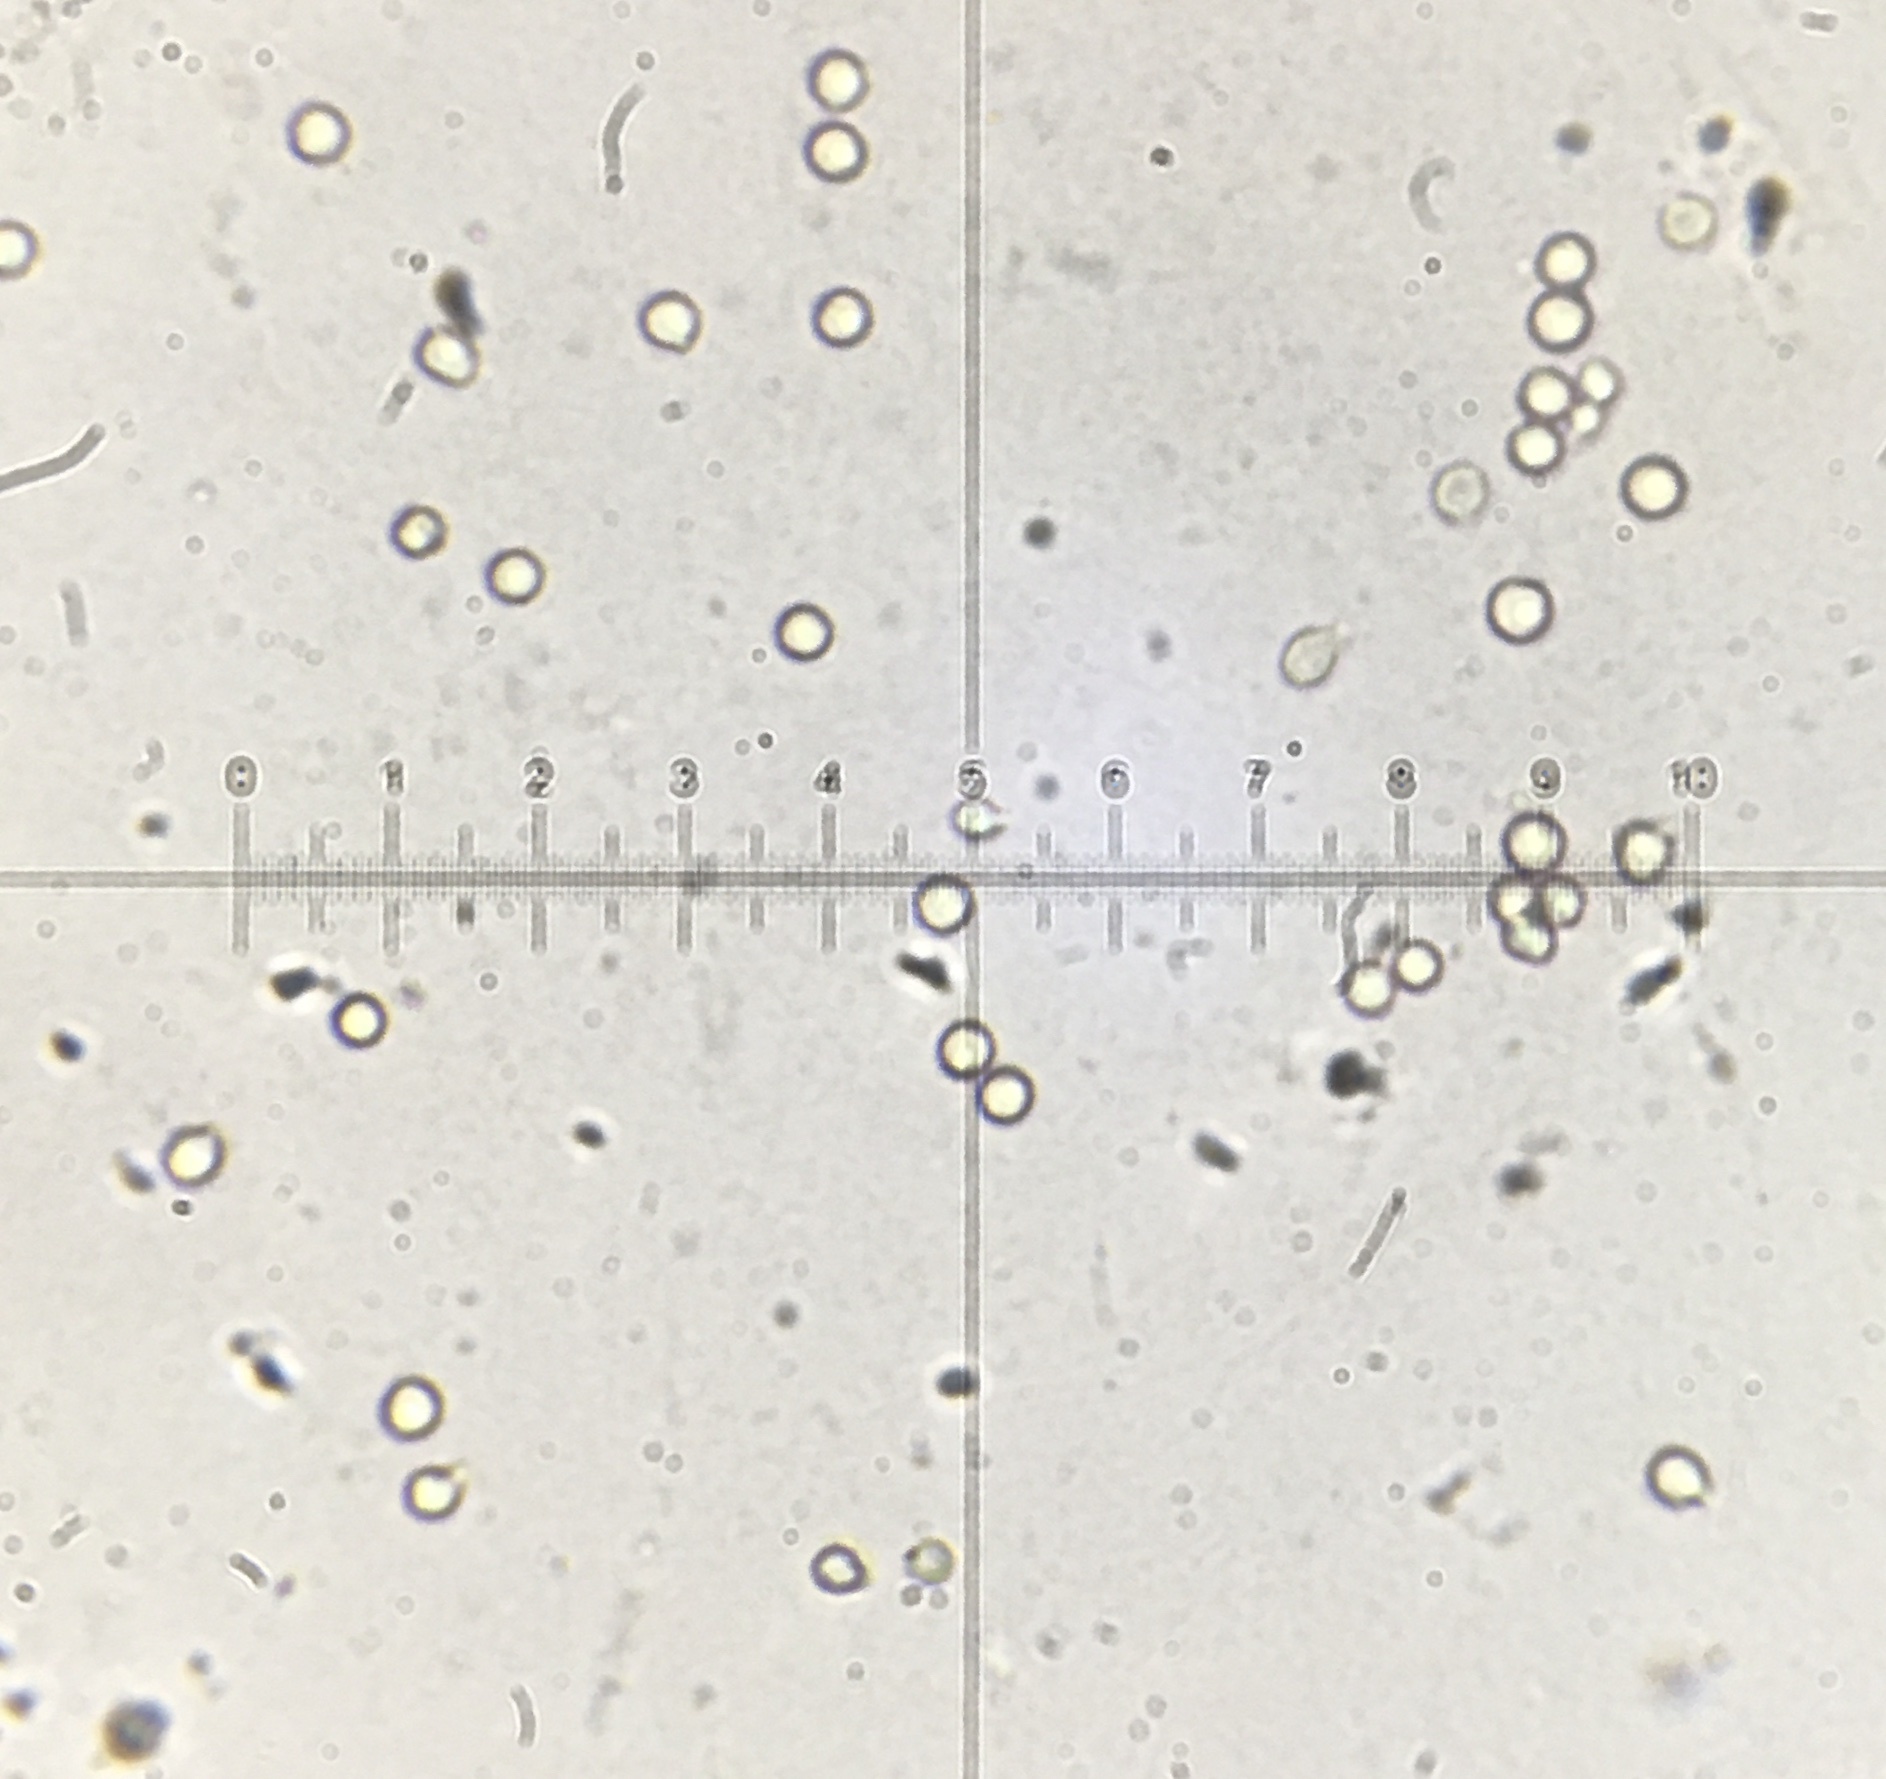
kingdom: Fungi
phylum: Basidiomycota
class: Agaricomycetes
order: Agaricales
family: Lycoperdaceae
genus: Calvatia
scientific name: Calvatia candida
